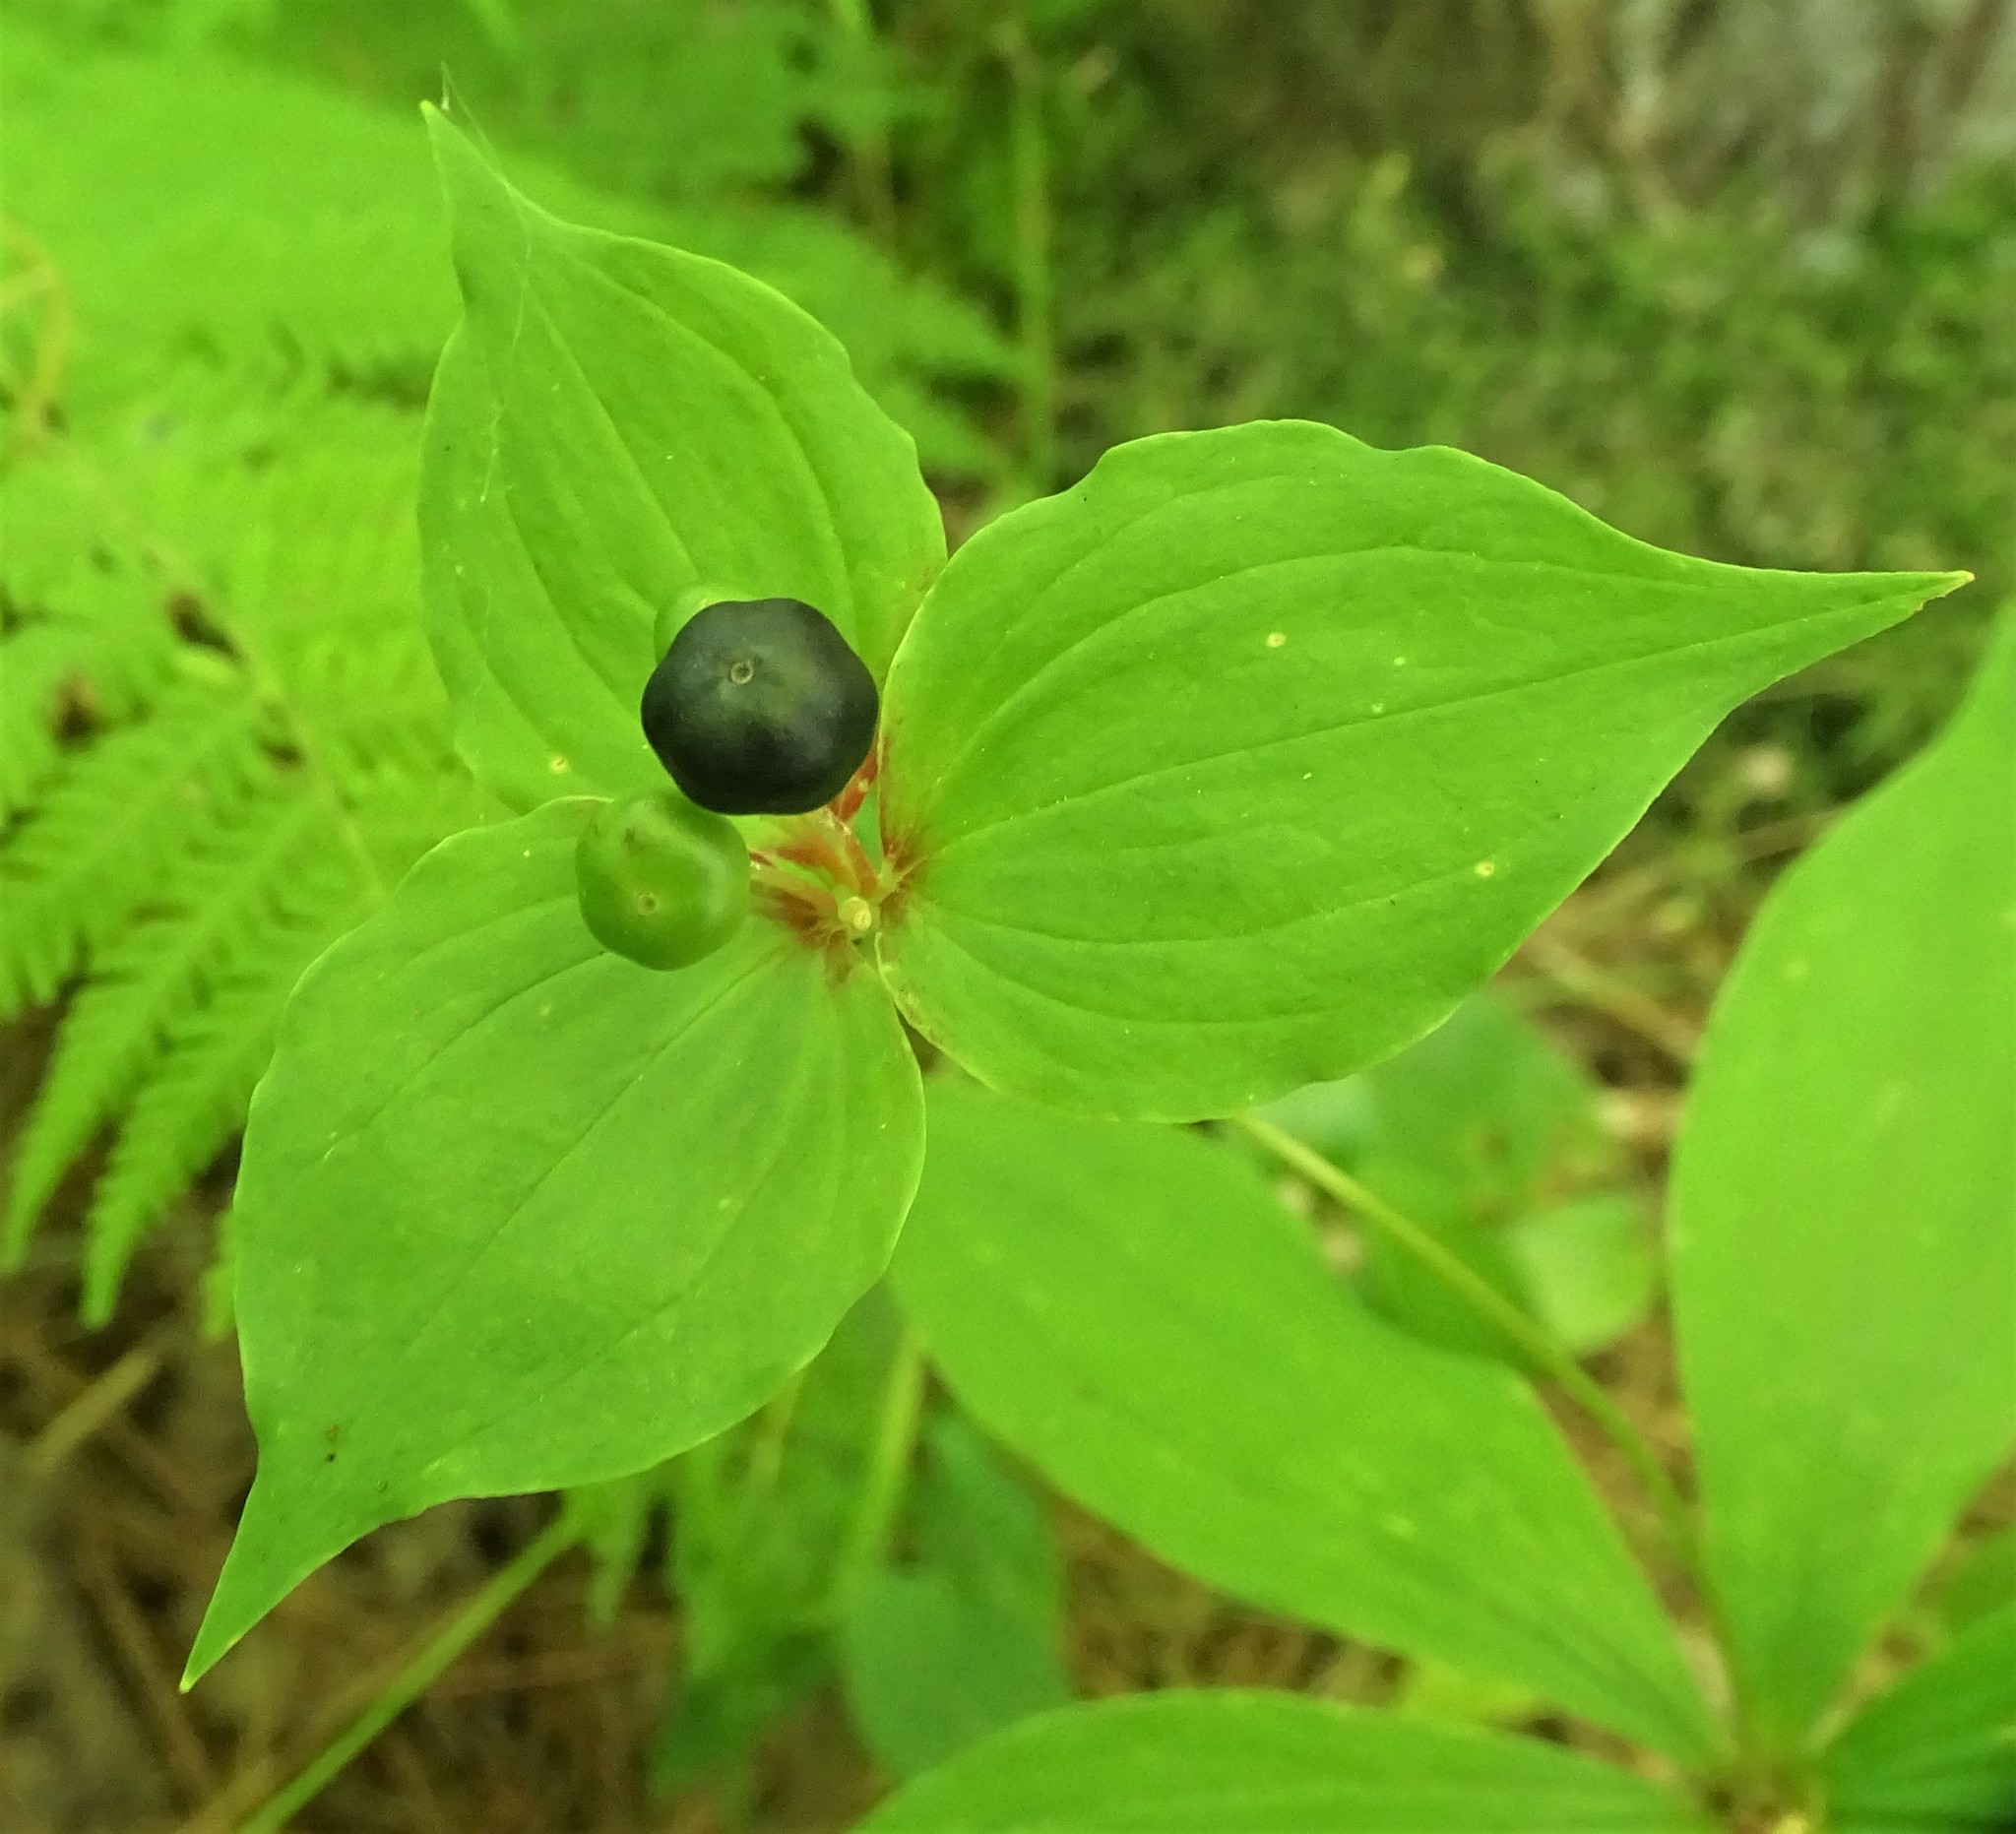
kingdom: Plantae
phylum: Tracheophyta
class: Liliopsida
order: Liliales
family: Liliaceae
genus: Medeola
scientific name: Medeola virginiana
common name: Indian cucumber-root
